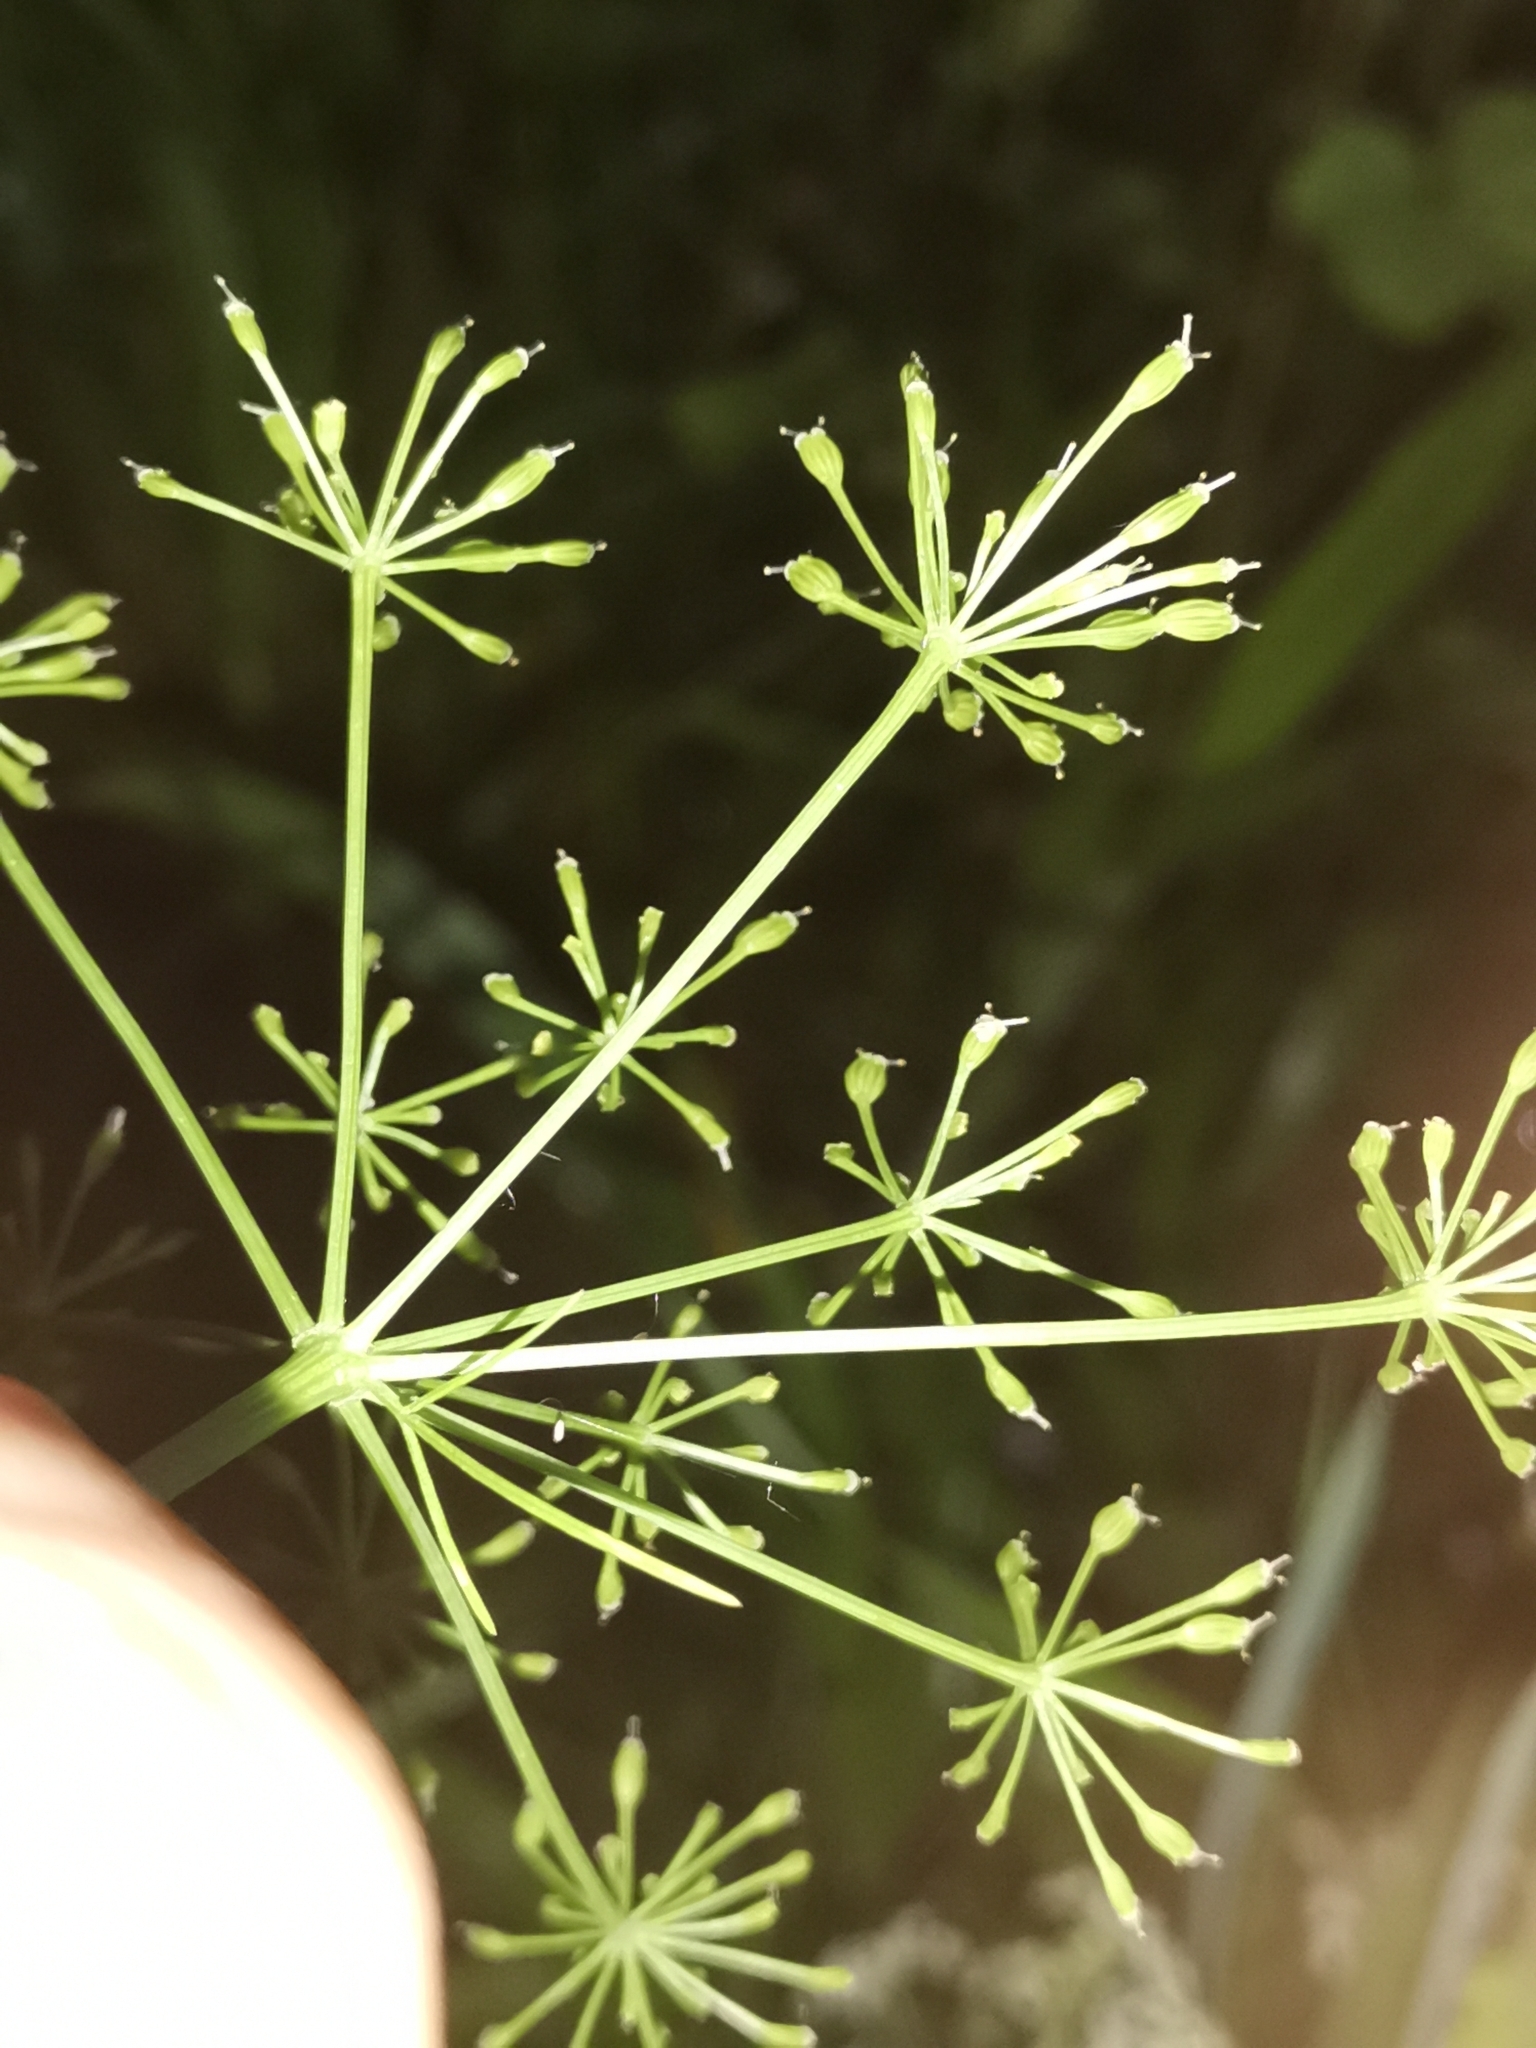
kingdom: Plantae
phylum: Tracheophyta
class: Magnoliopsida
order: Apiales
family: Apiaceae
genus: Carum
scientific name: Carum carvi
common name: Caraway
